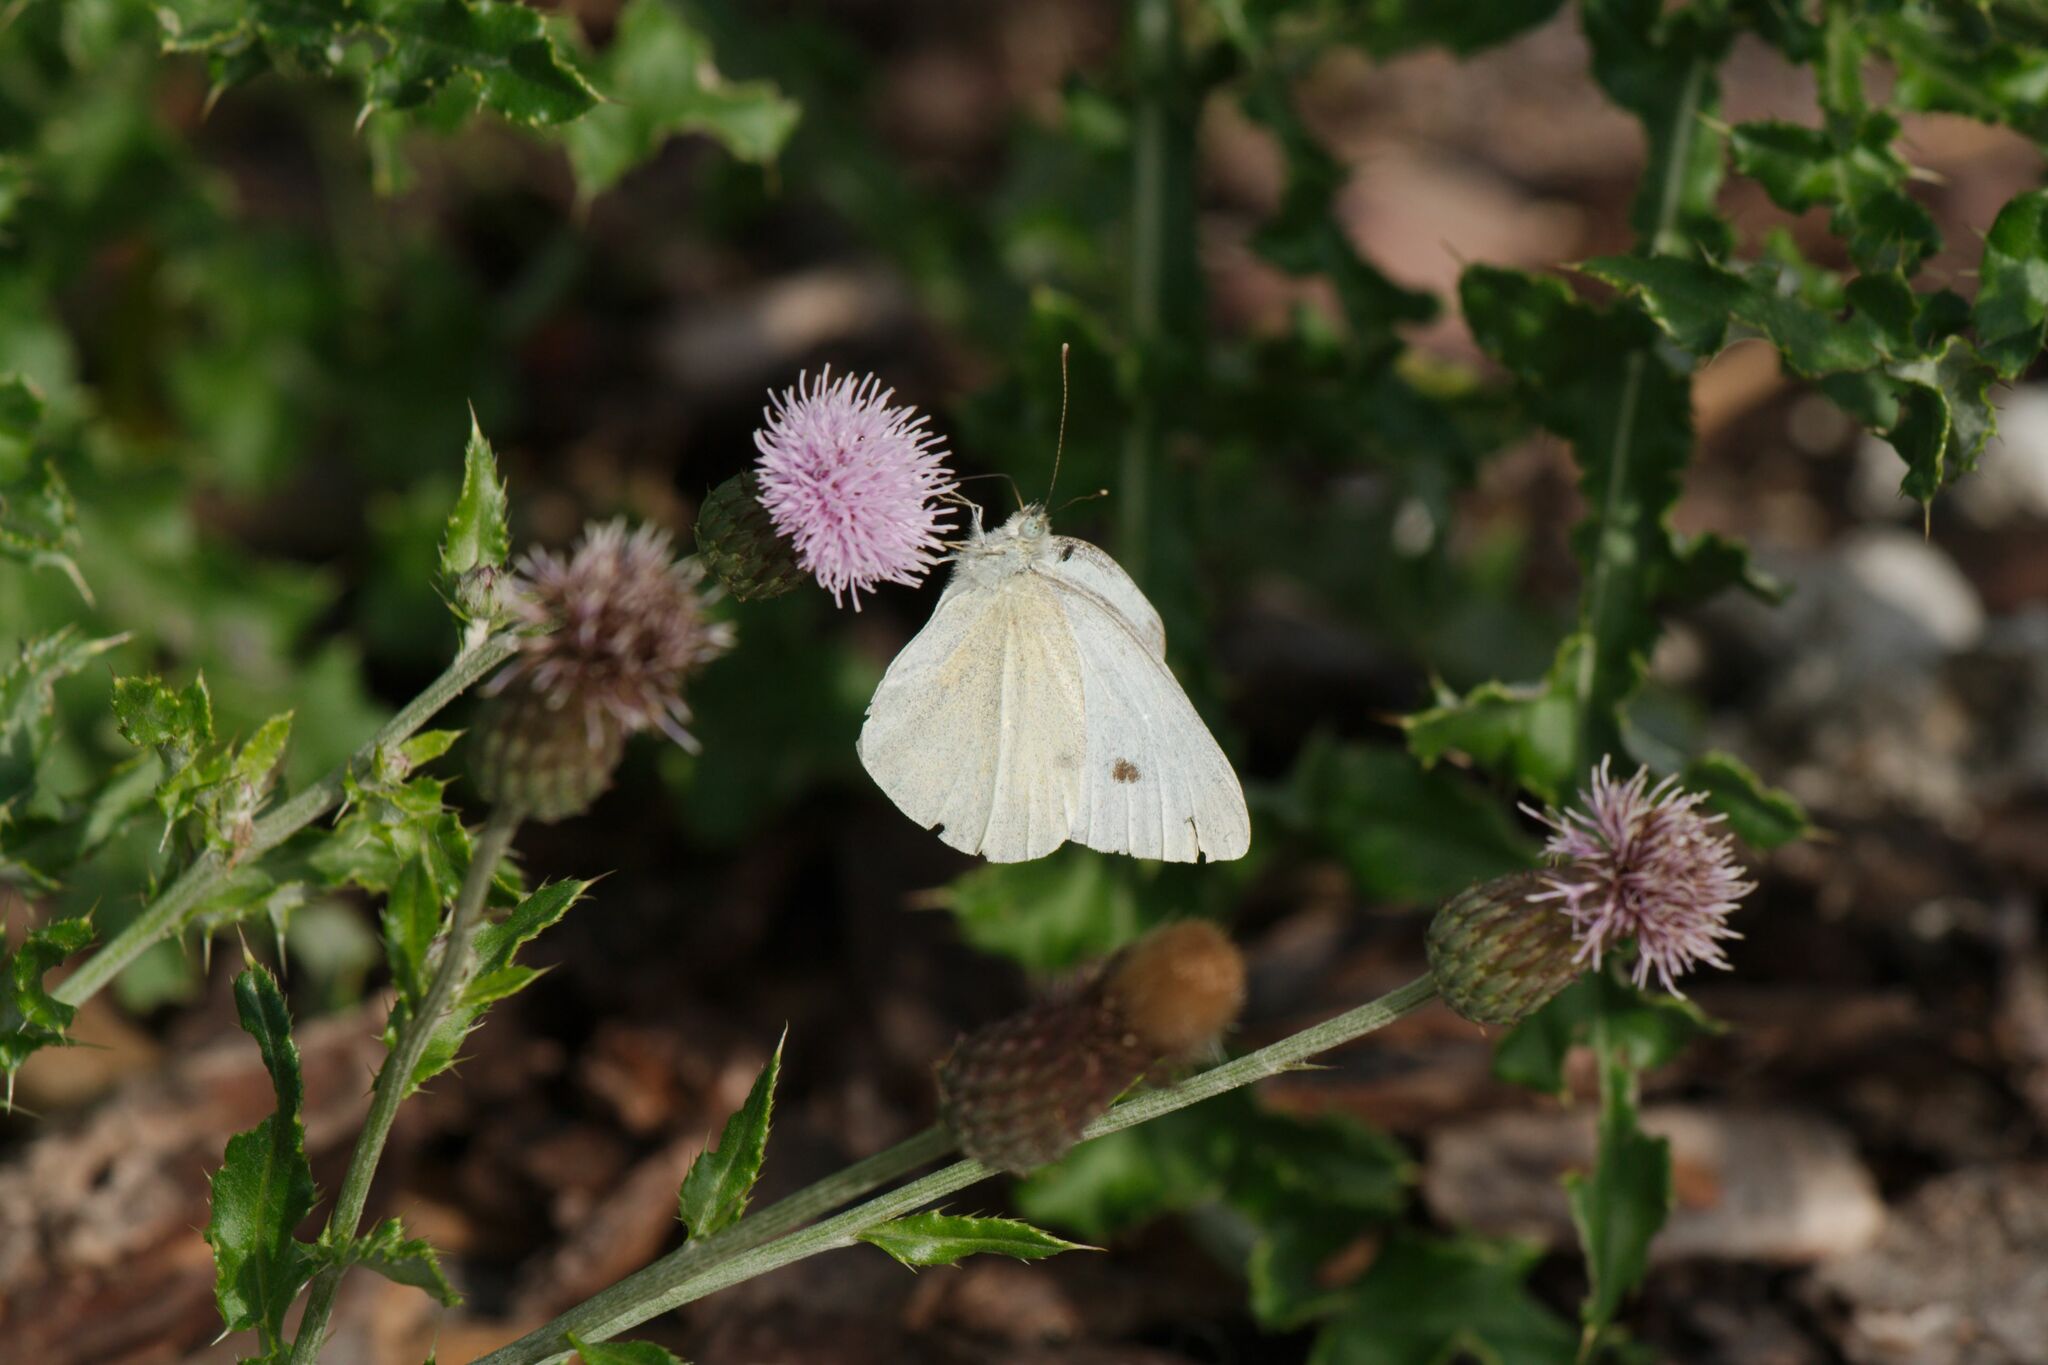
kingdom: Animalia
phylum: Arthropoda
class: Insecta
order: Lepidoptera
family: Pieridae
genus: Pieris
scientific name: Pieris rapae
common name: Small white
